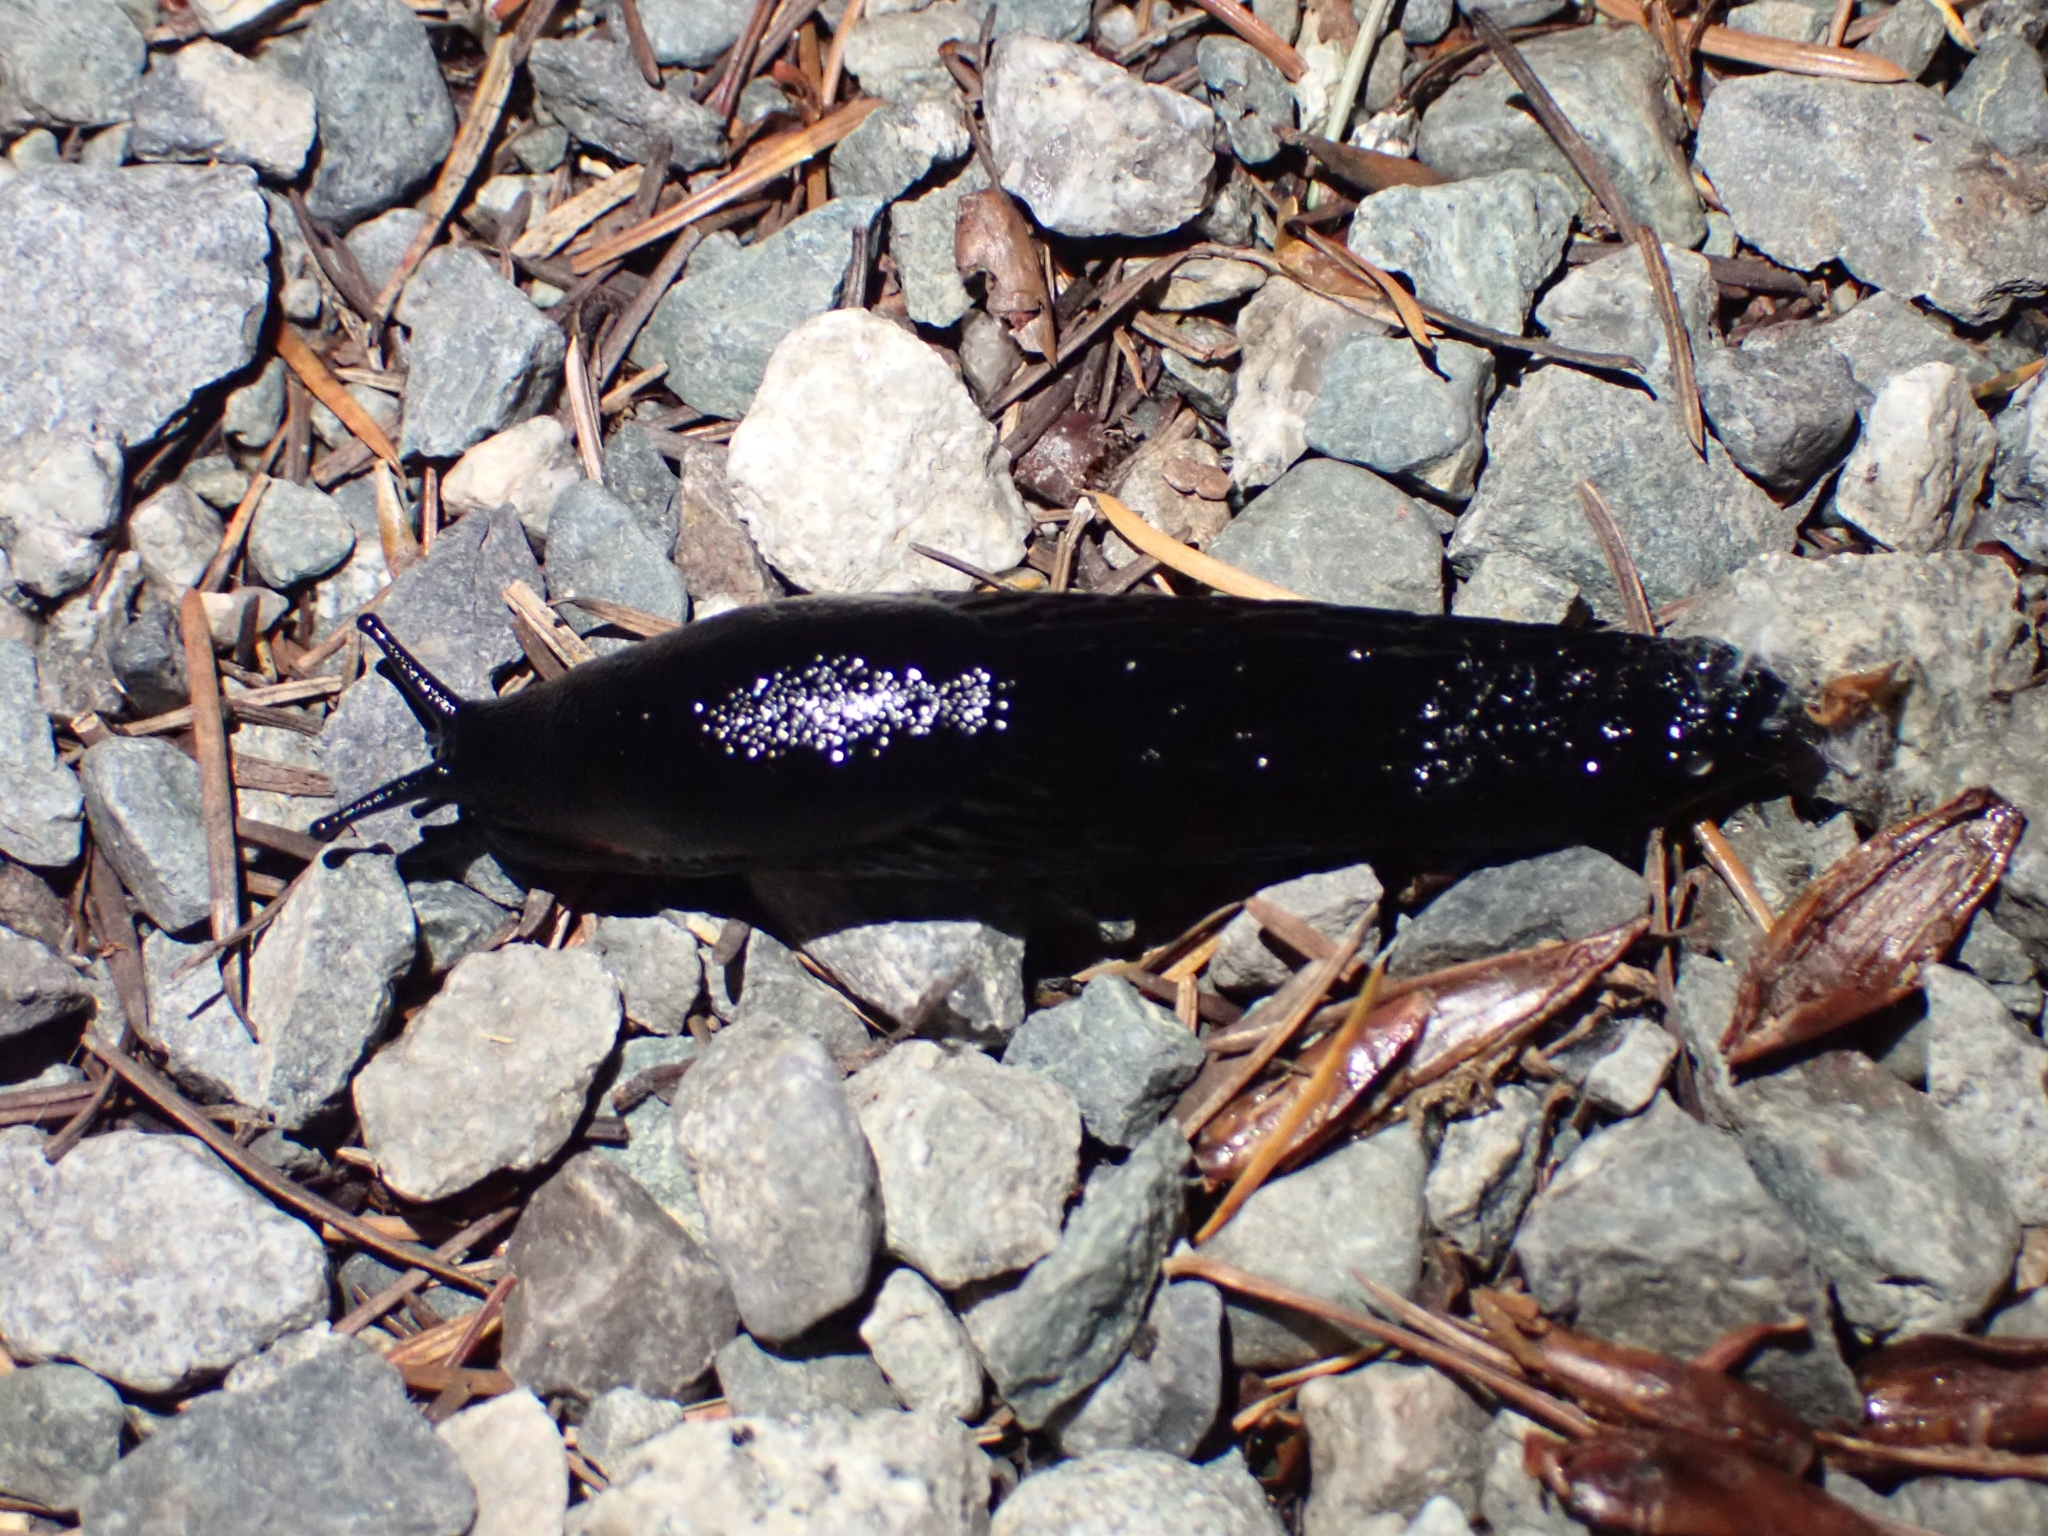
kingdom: Animalia
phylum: Mollusca
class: Gastropoda
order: Stylommatophora
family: Arionidae
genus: Arion
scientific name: Arion
